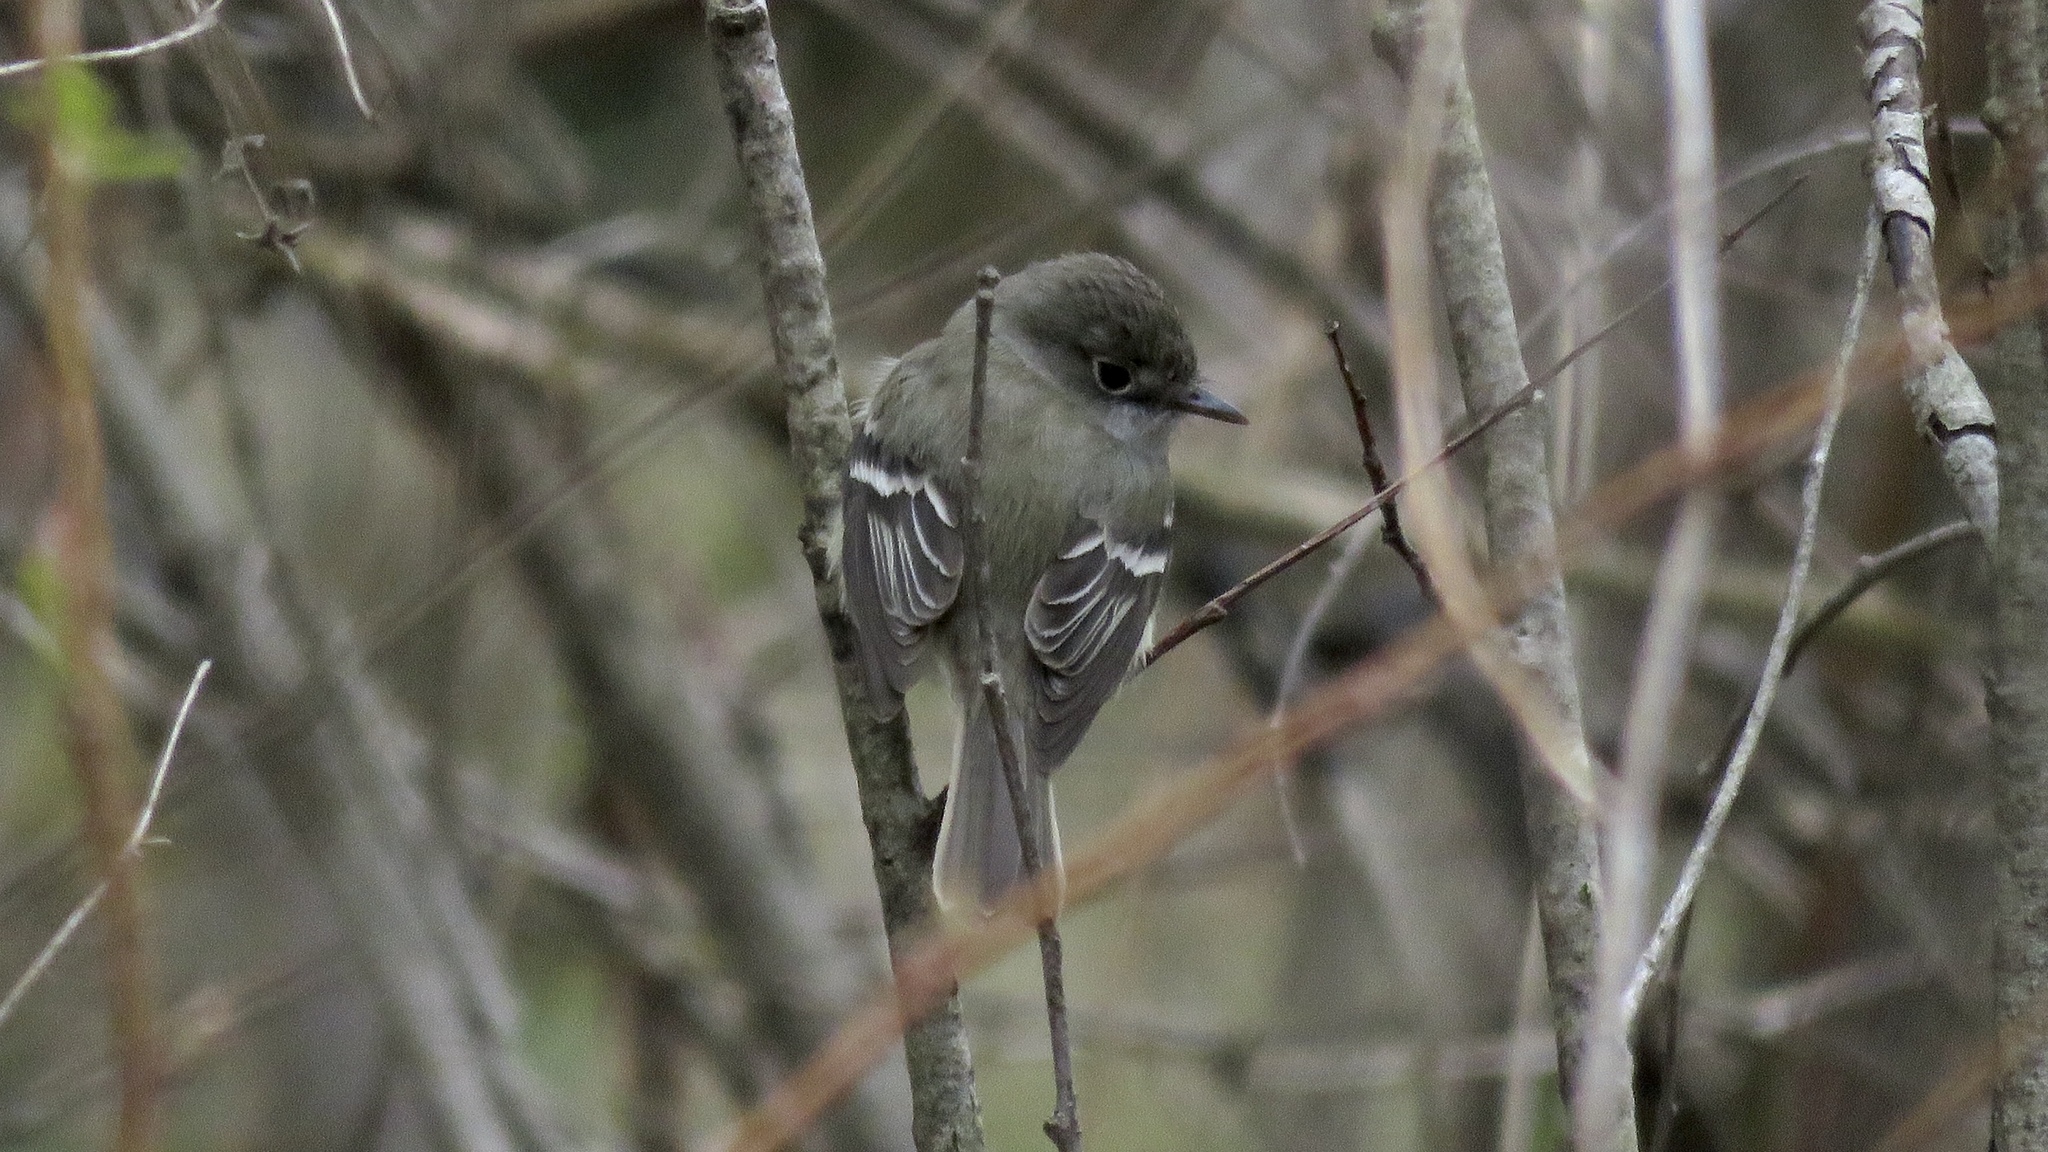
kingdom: Animalia
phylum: Chordata
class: Aves
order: Passeriformes
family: Tyrannidae
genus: Empidonax
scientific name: Empidonax minimus
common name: Least flycatcher
